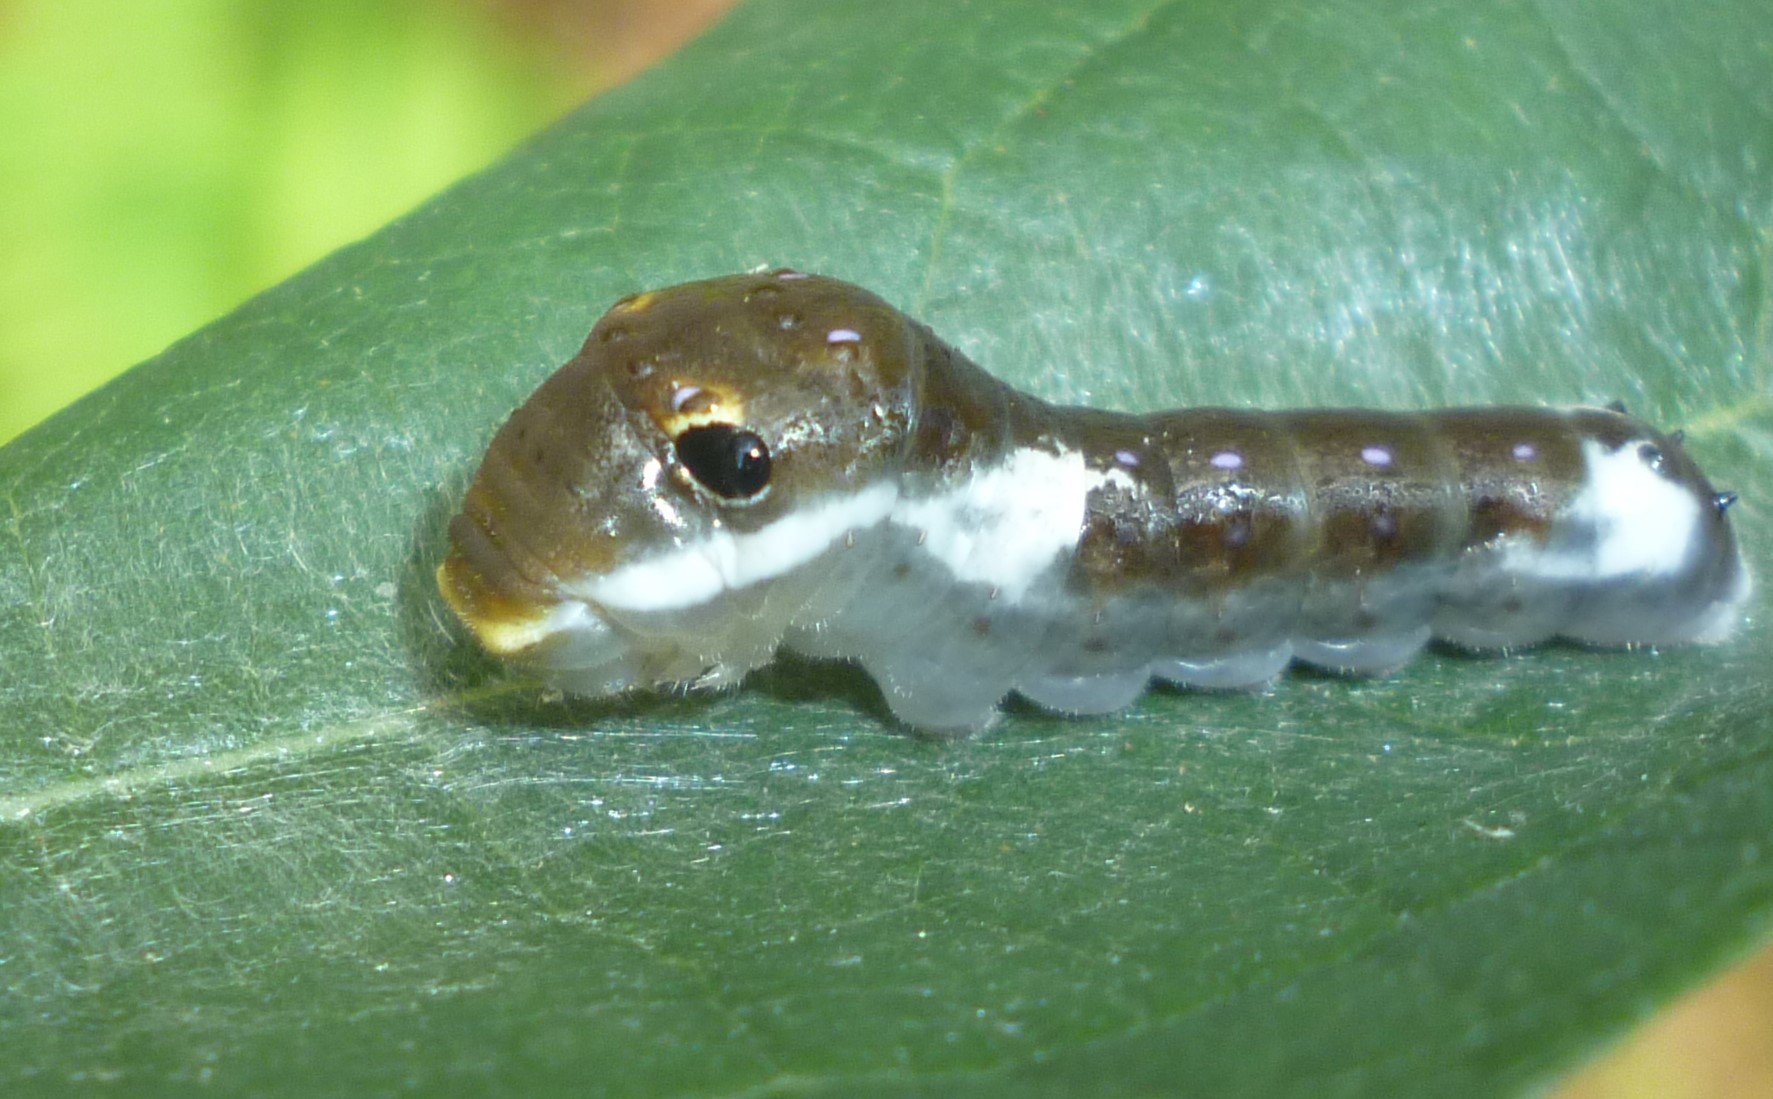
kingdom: Animalia
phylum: Arthropoda
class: Insecta
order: Lepidoptera
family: Papilionidae
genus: Papilio
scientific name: Papilio troilus
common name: Spicebush swallowtail
